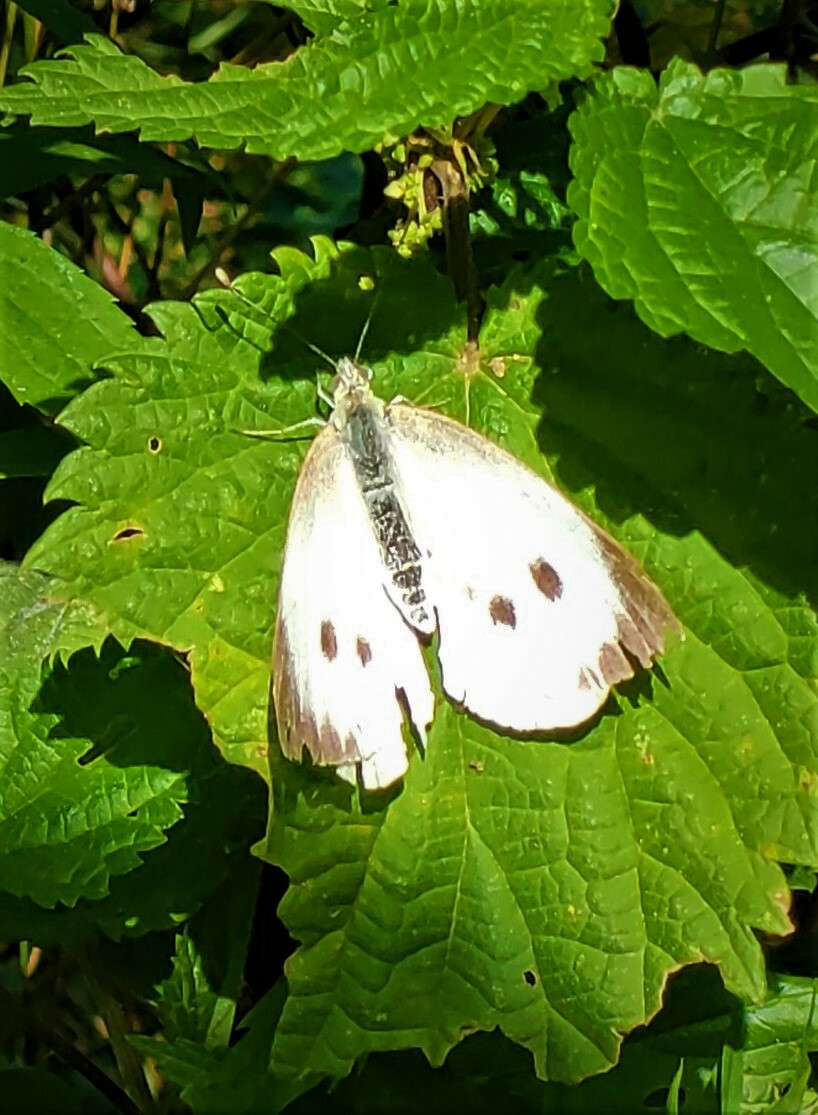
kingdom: Animalia
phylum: Arthropoda
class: Insecta
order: Lepidoptera
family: Pieridae
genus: Pieris
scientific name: Pieris brassicae
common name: Large white
